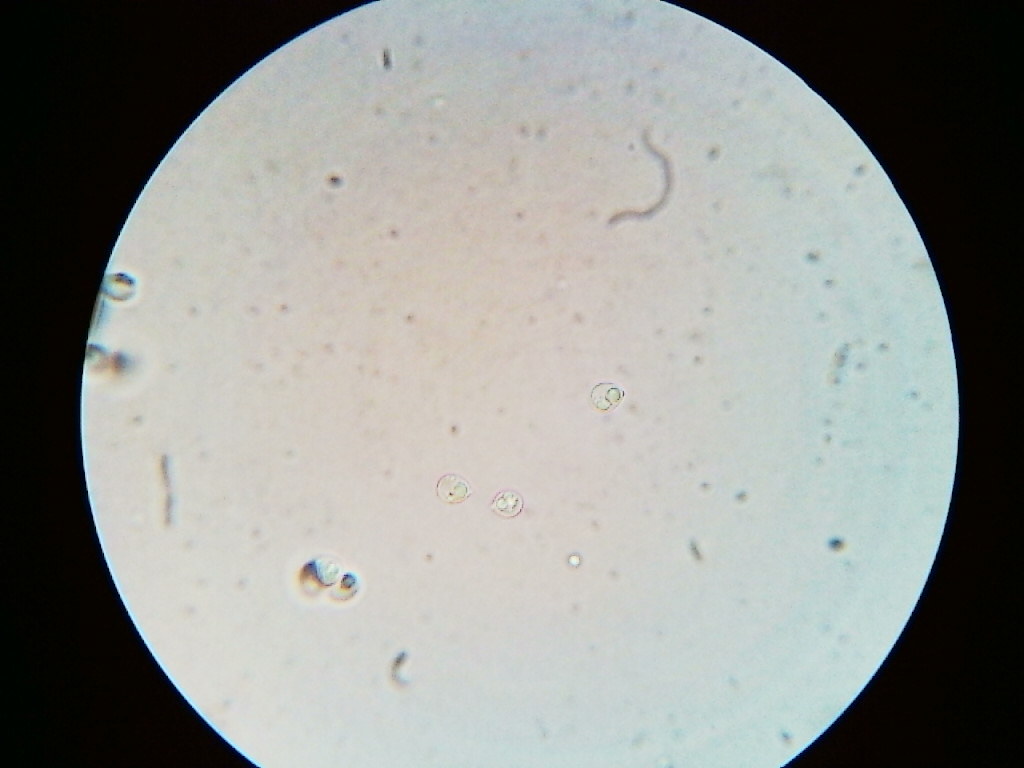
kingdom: Fungi
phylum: Basidiomycota
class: Agaricomycetes
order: Polyporales
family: Meripilaceae
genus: Rigidoporus
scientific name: Rigidoporus sanguinolentus
